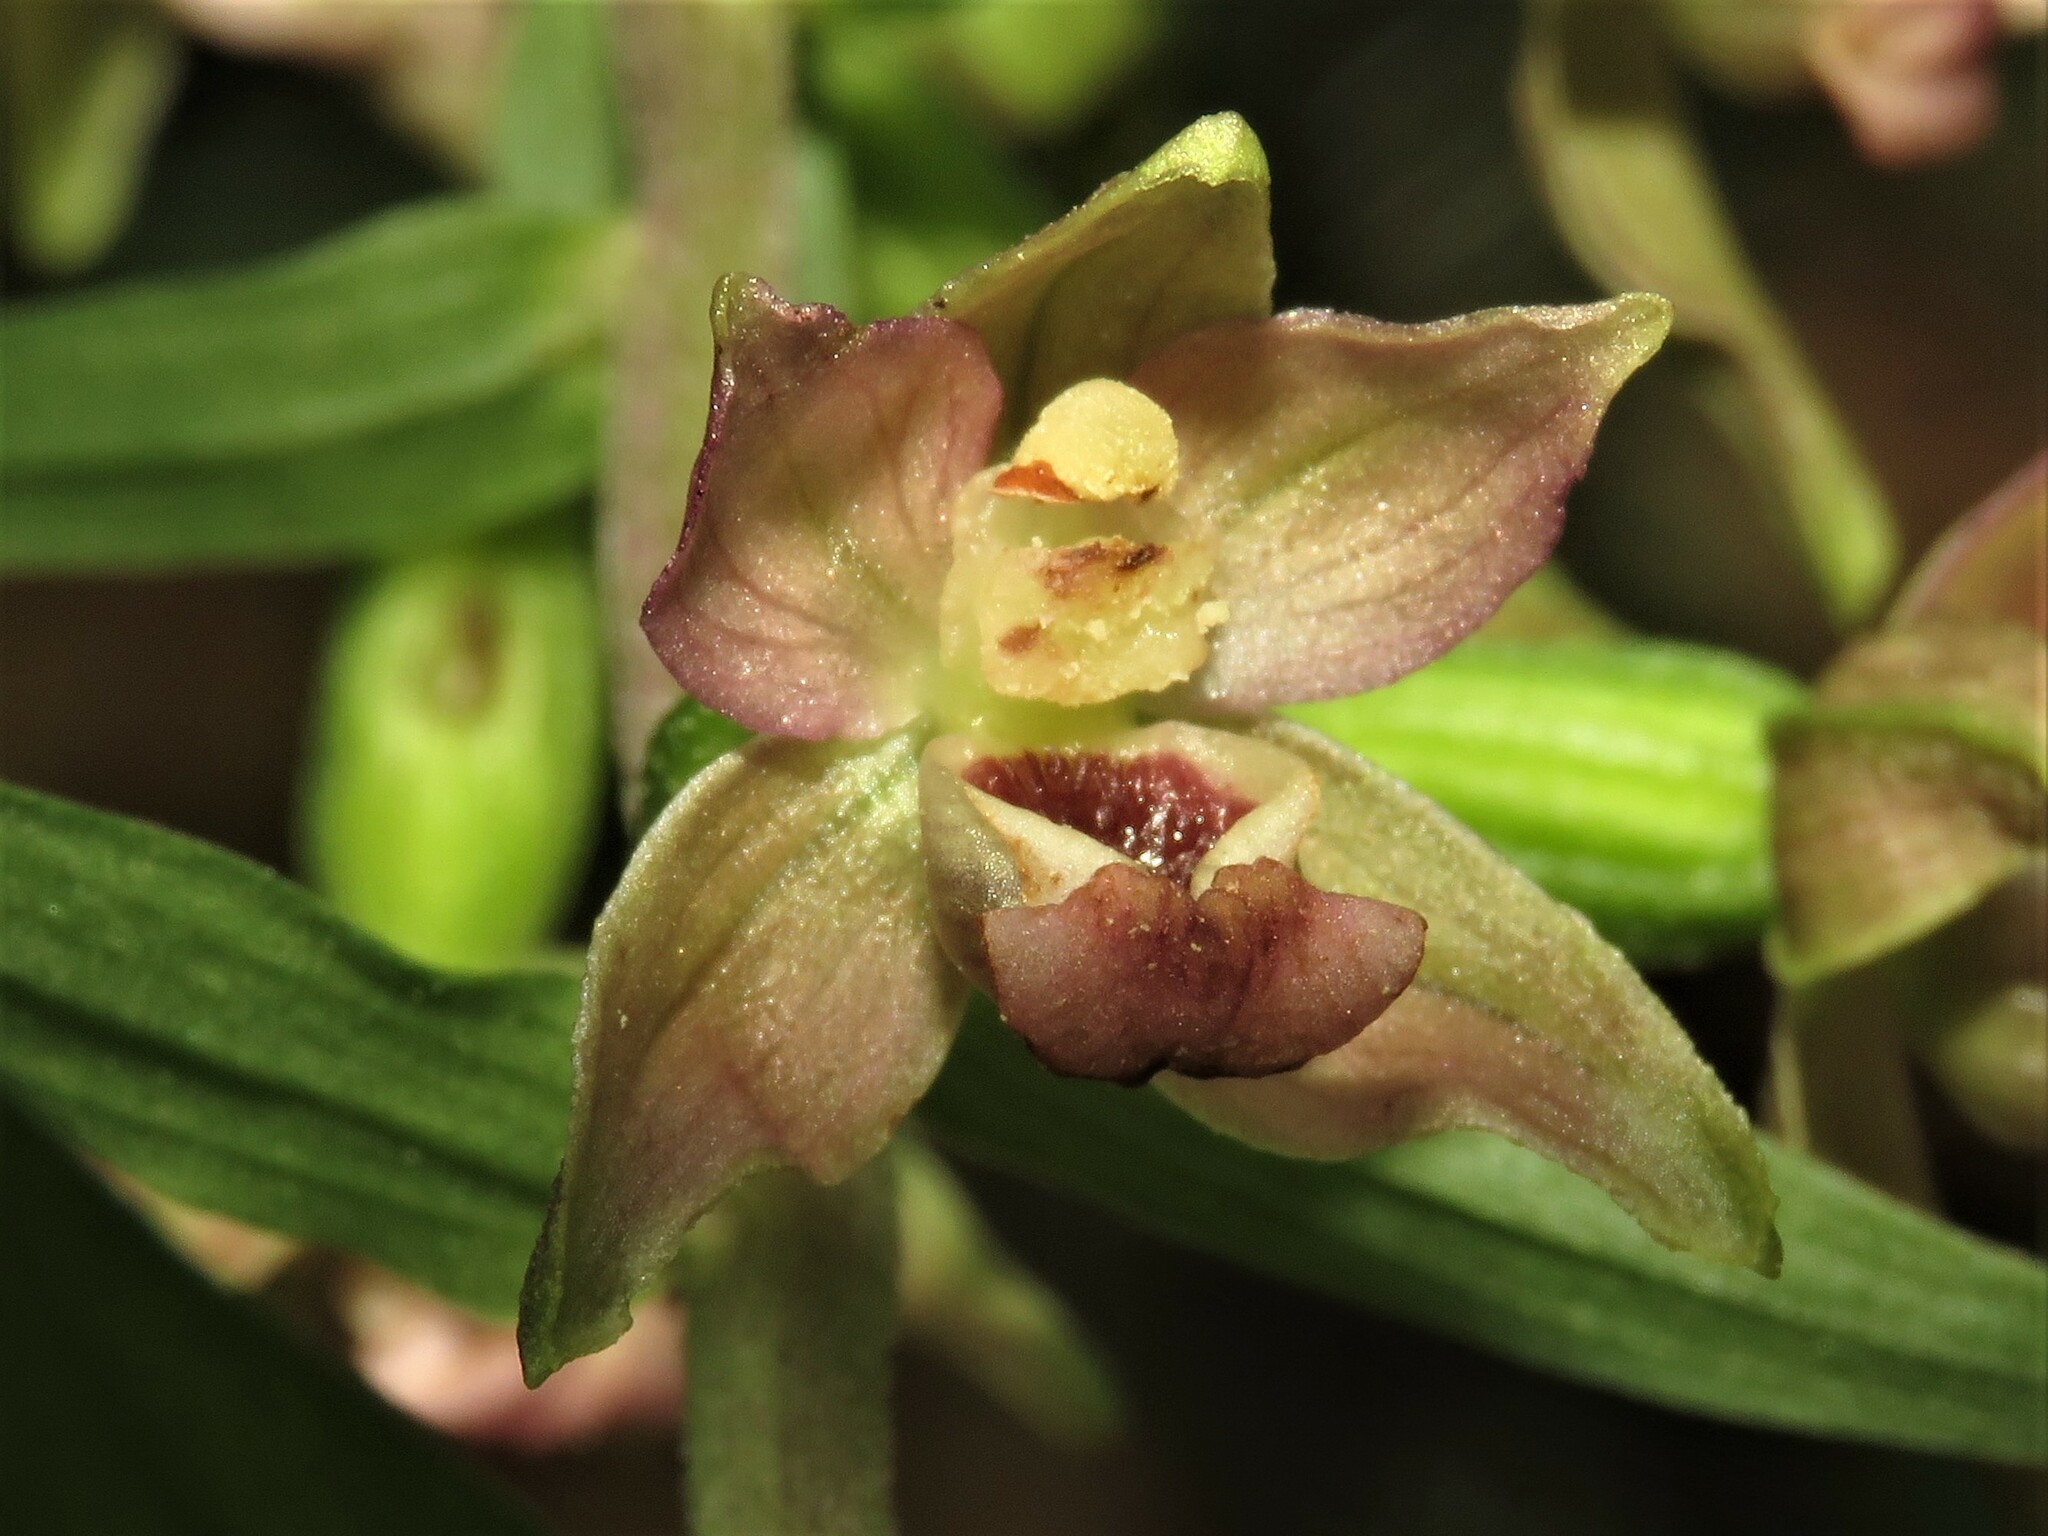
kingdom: Plantae
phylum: Tracheophyta
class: Liliopsida
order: Asparagales
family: Orchidaceae
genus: Epipactis
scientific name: Epipactis helleborine
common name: Broad-leaved helleborine
